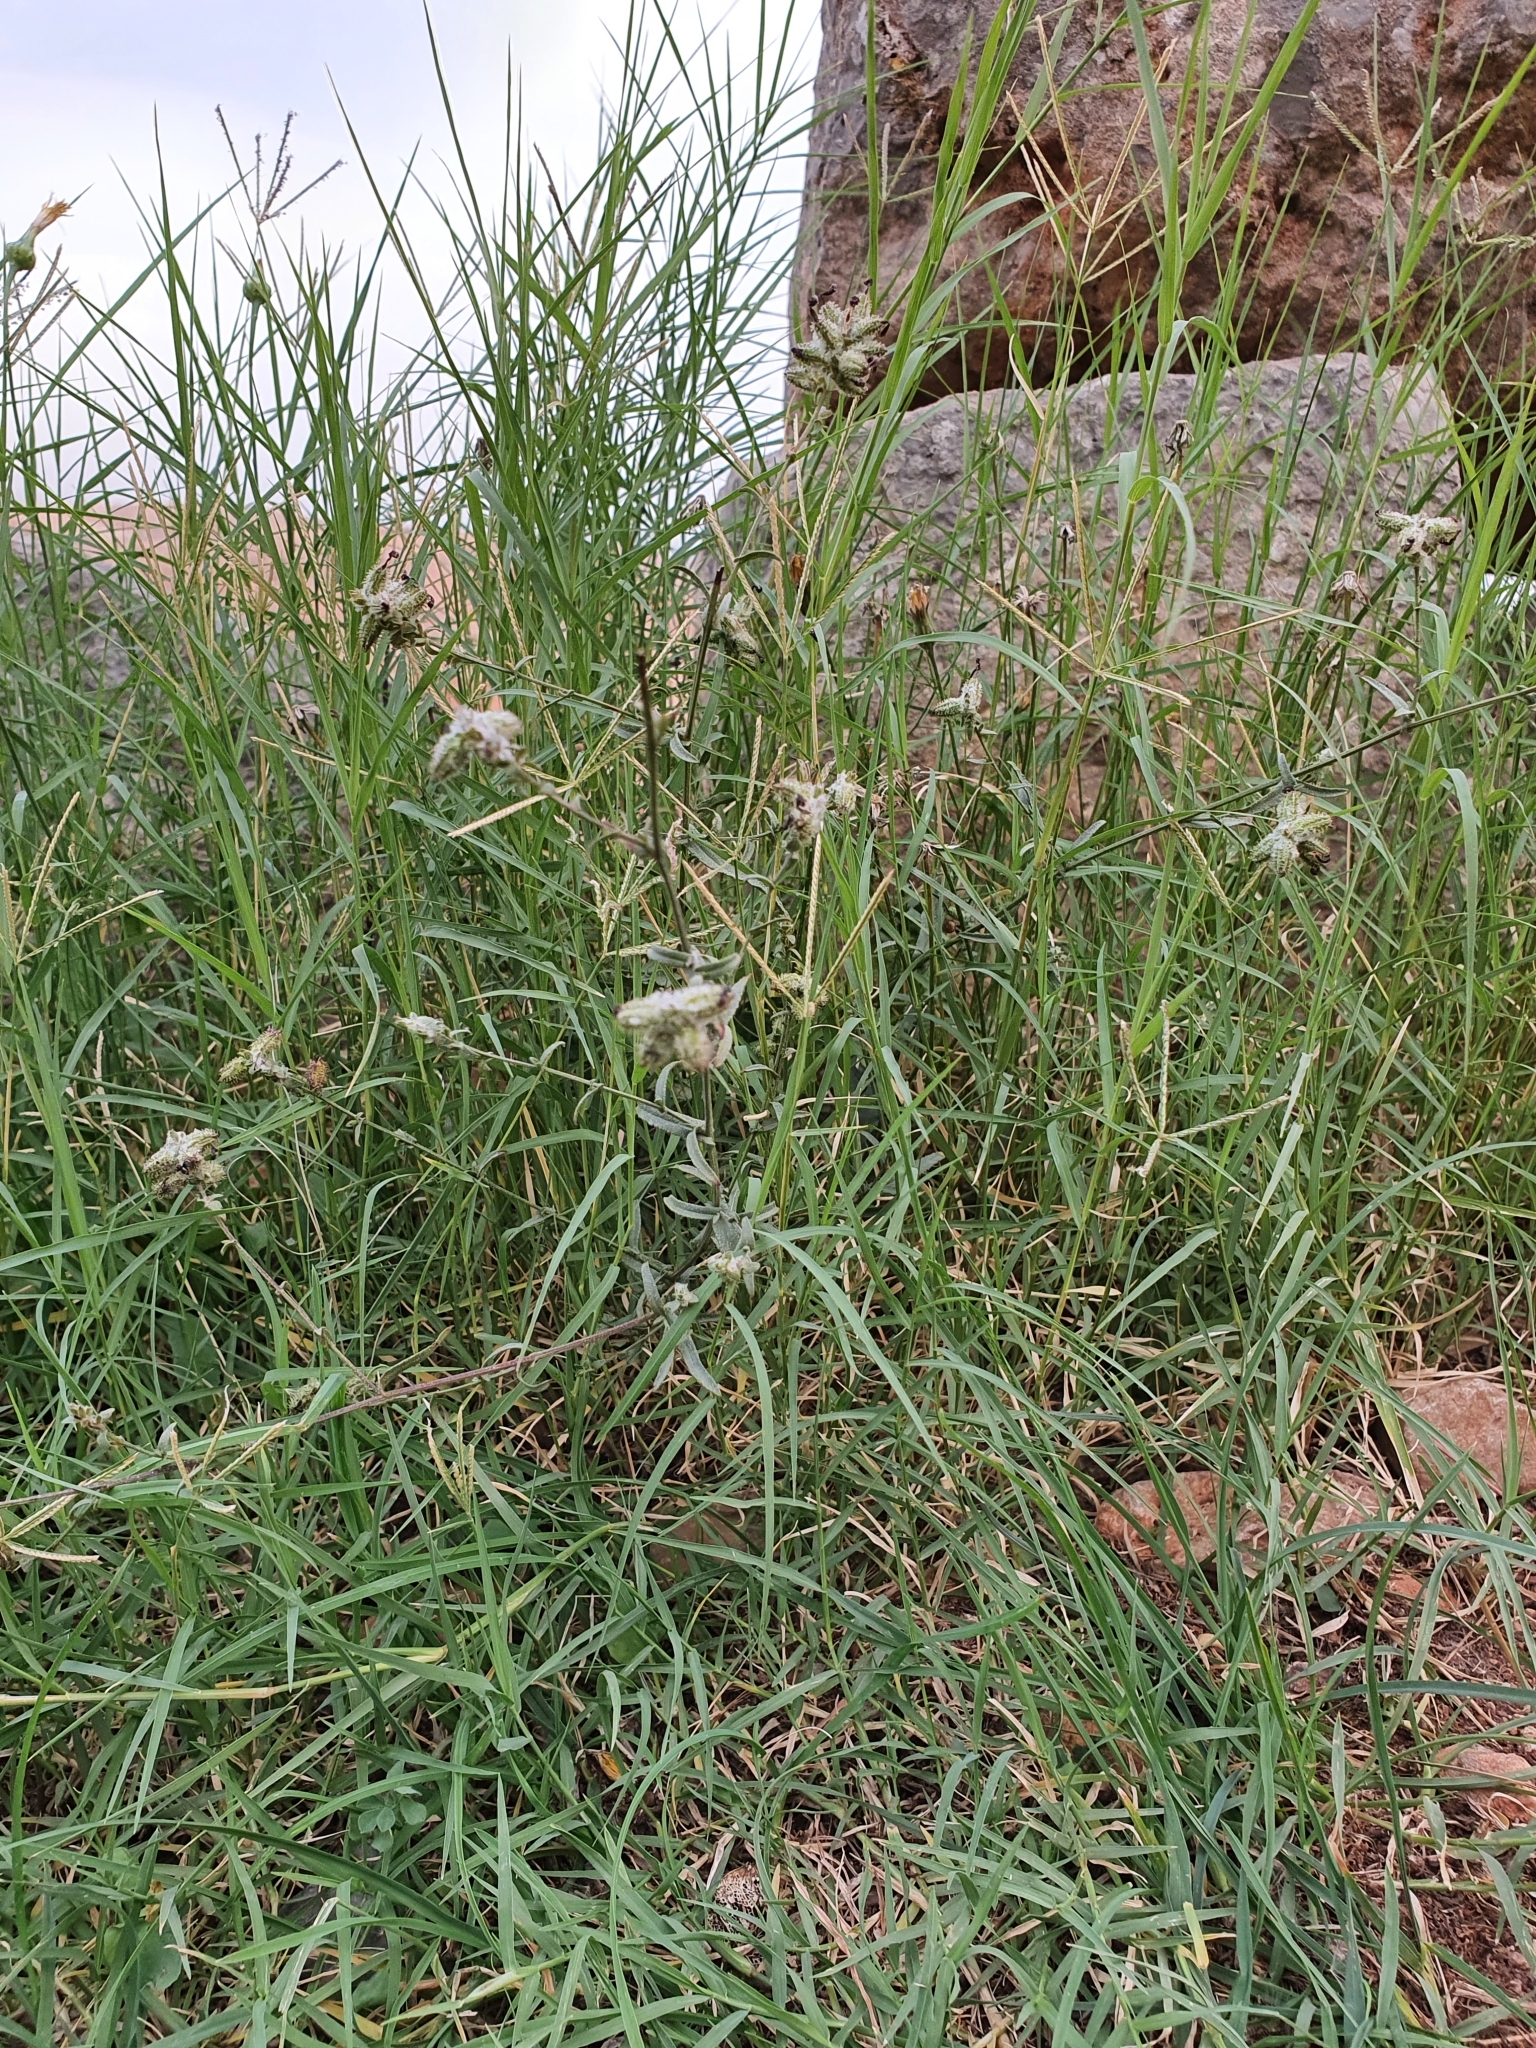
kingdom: Plantae
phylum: Tracheophyta
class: Magnoliopsida
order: Caryophyllales
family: Plumbaginaceae
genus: Plumbago
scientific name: Plumbago europaea
